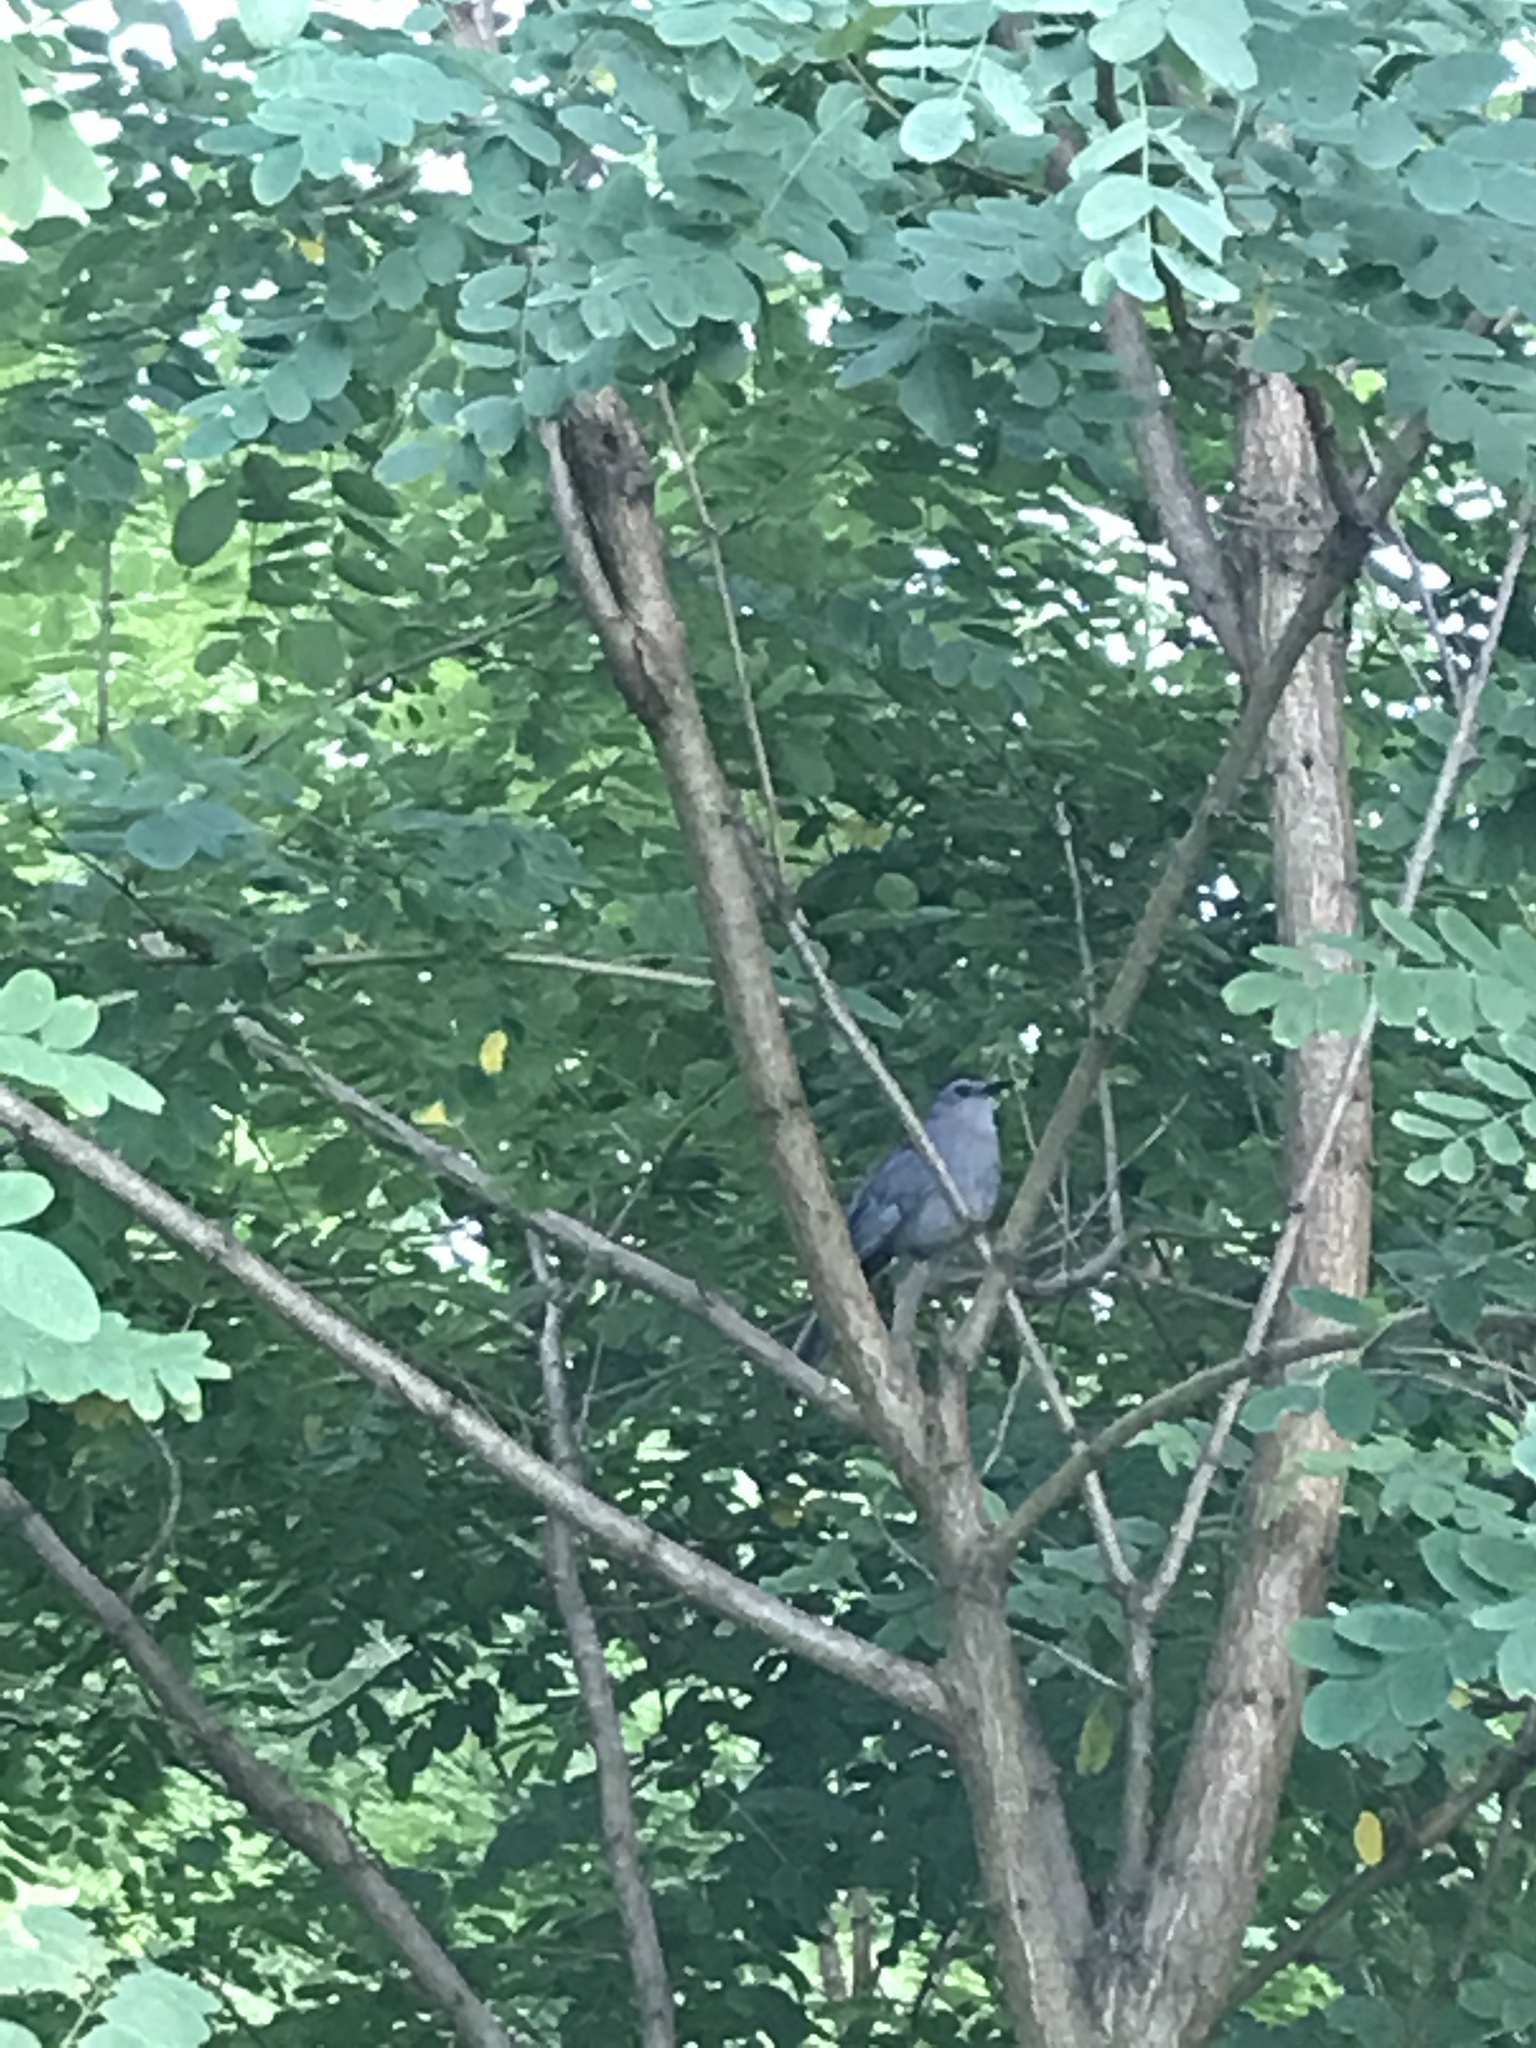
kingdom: Animalia
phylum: Chordata
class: Aves
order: Passeriformes
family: Mimidae
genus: Dumetella
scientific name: Dumetella carolinensis
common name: Gray catbird
